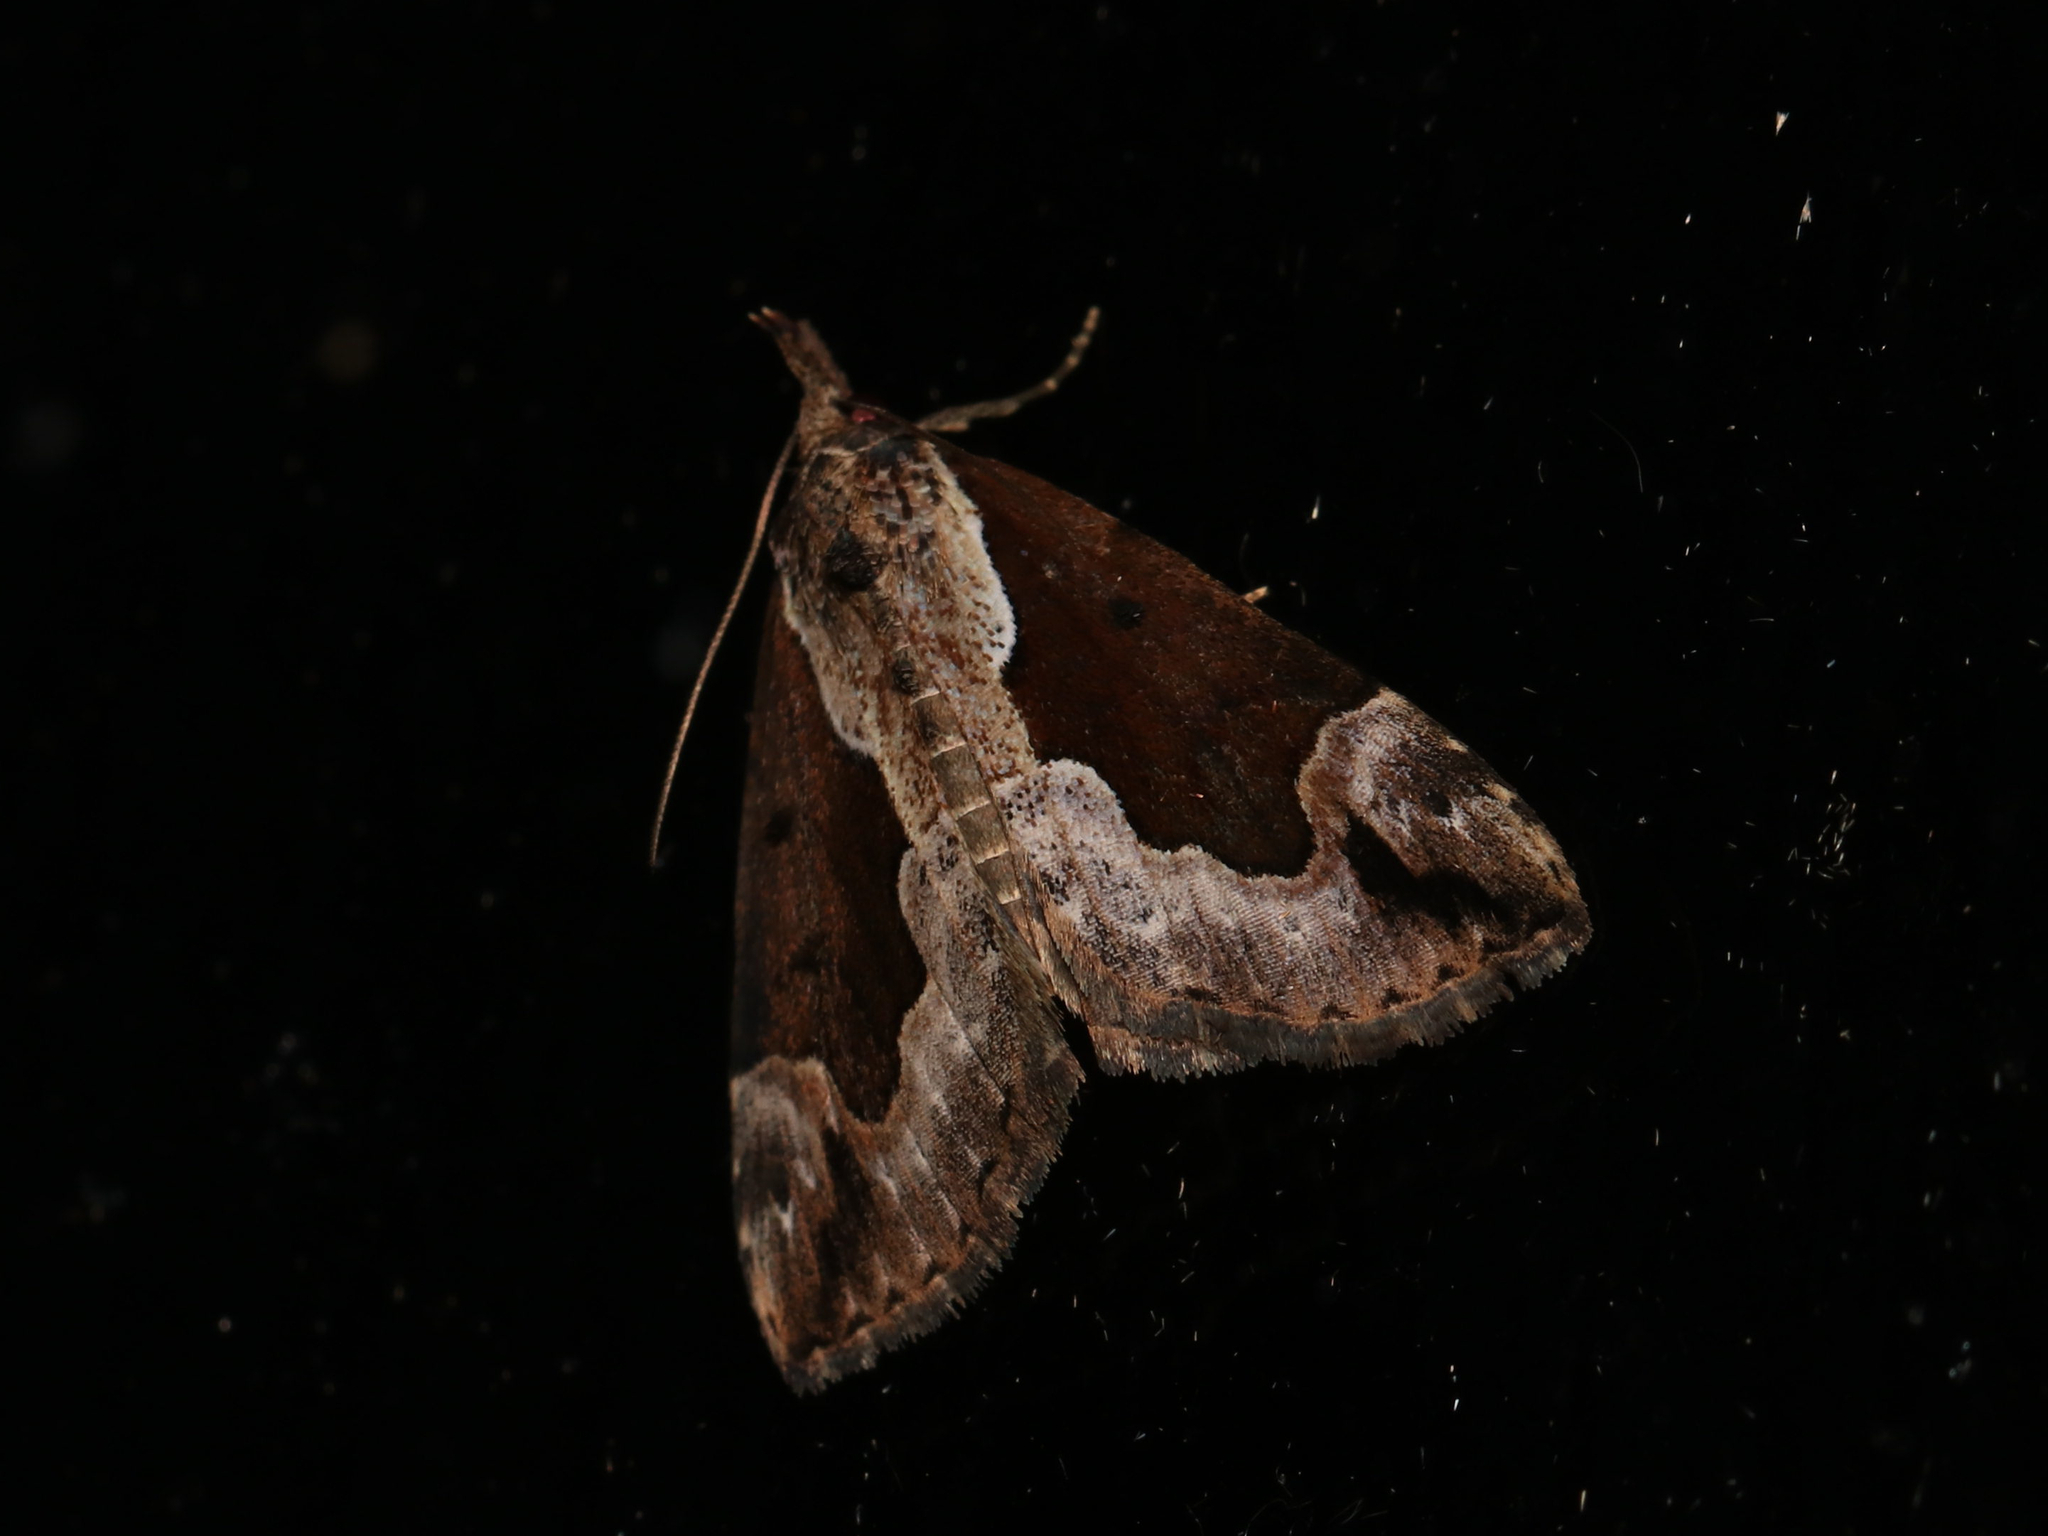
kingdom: Animalia
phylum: Arthropoda
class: Insecta
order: Lepidoptera
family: Erebidae
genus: Hypena
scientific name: Hypena baltimoralis
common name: Baltimore snout
